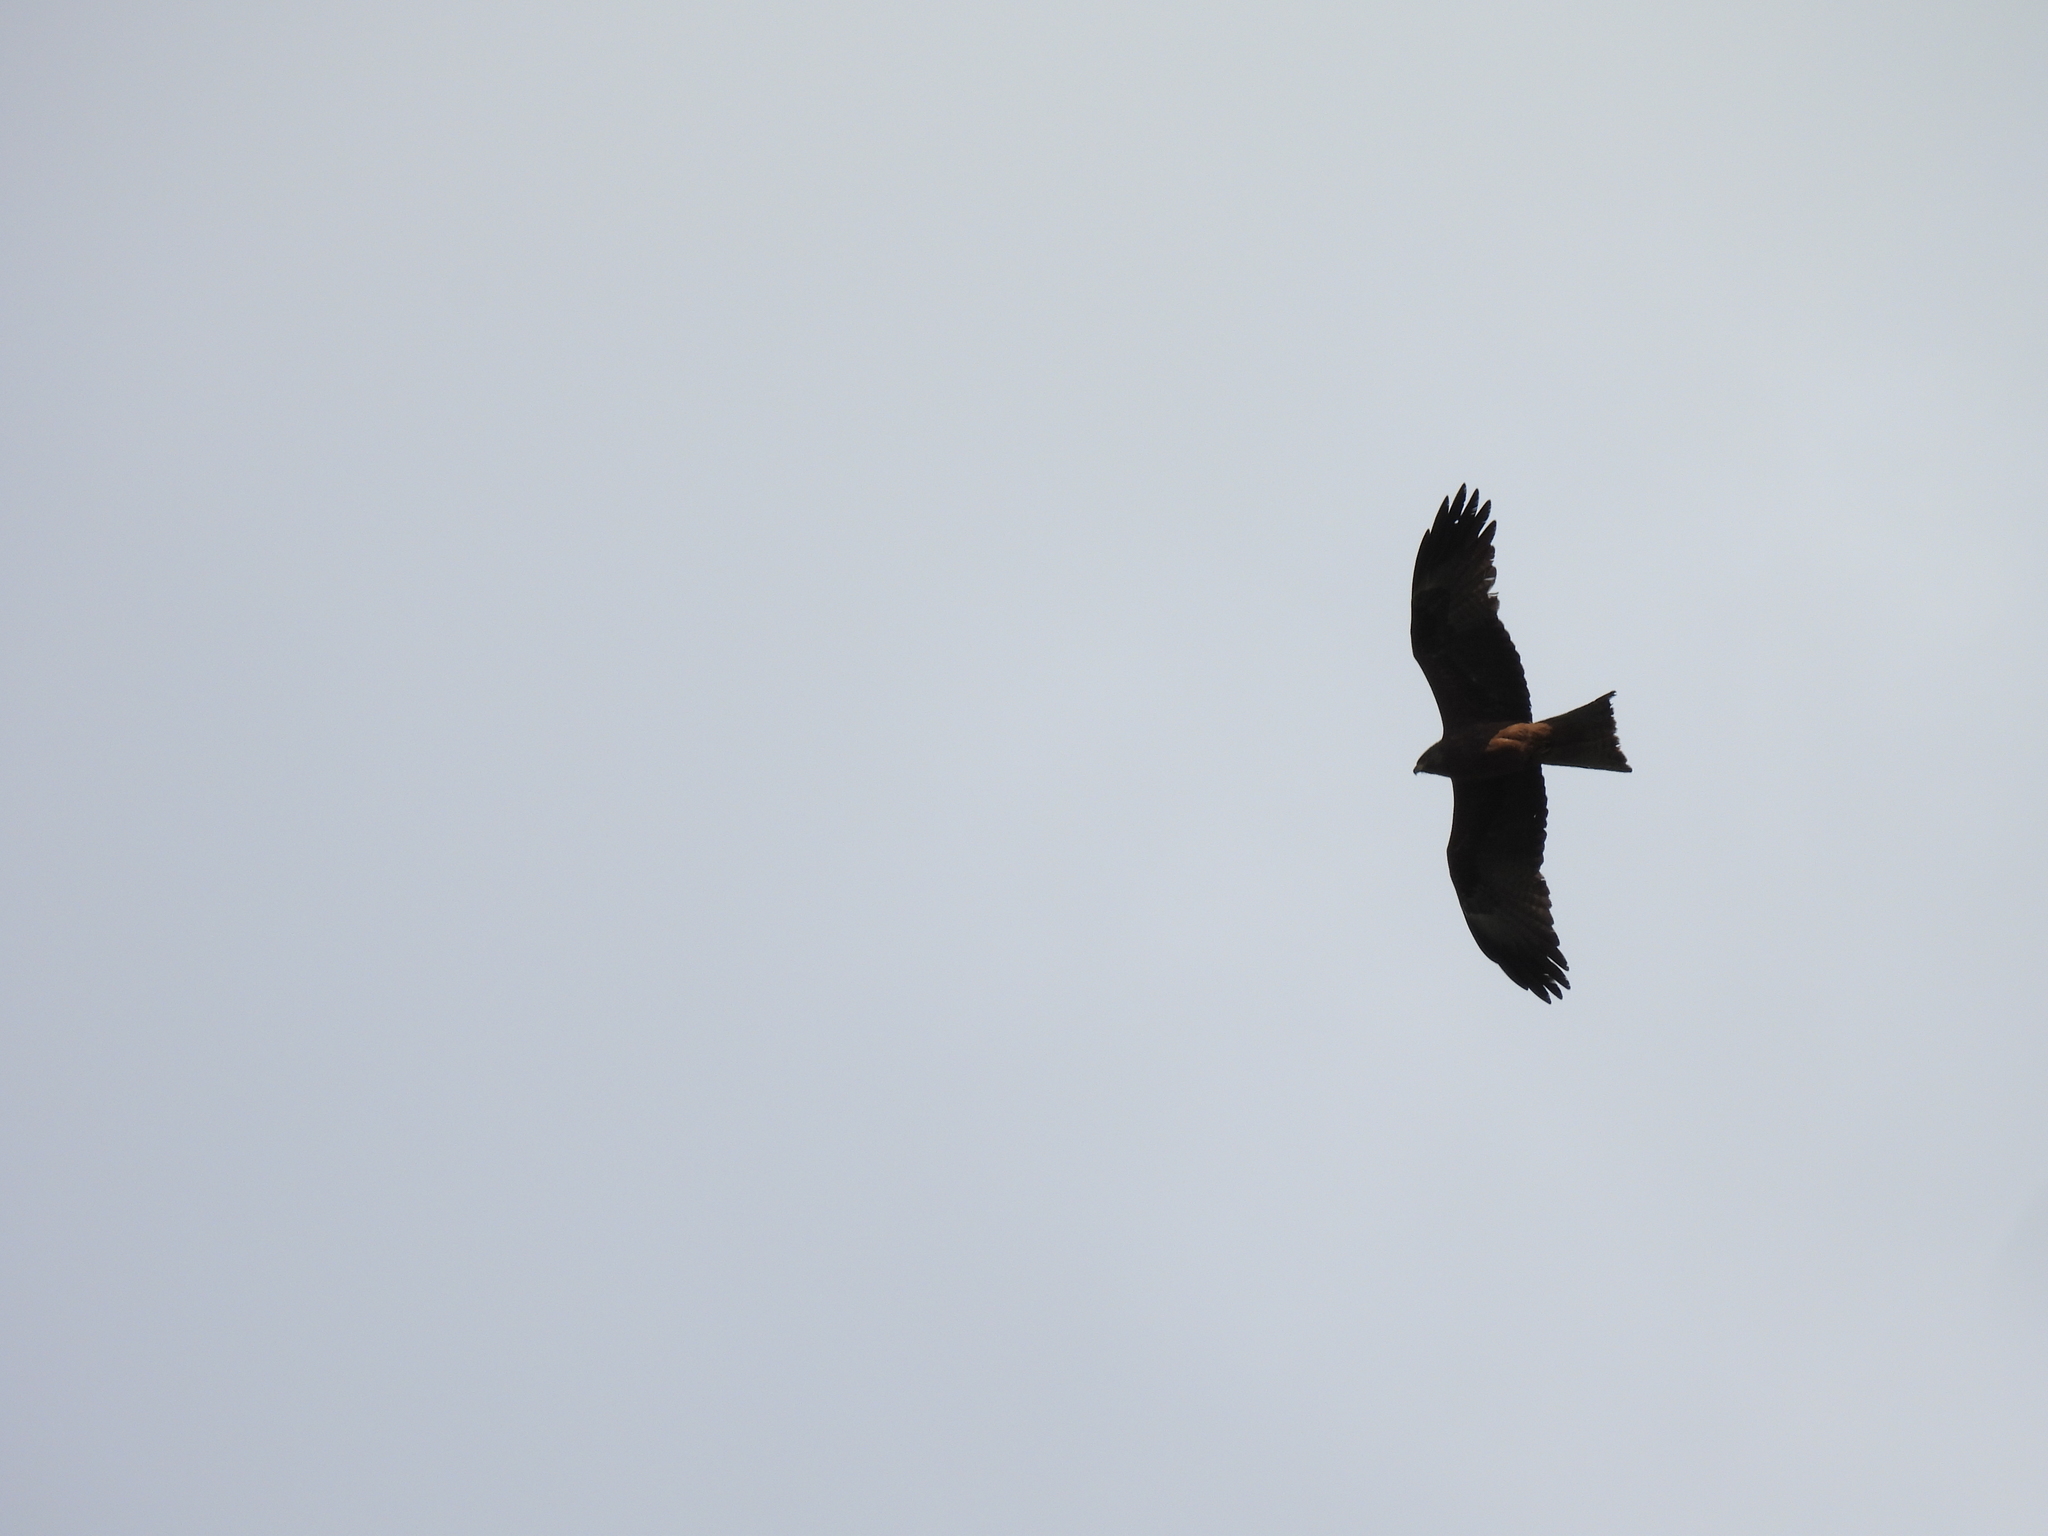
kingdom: Animalia
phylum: Chordata
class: Aves
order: Accipitriformes
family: Accipitridae
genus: Milvus
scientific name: Milvus migrans
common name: Black kite
